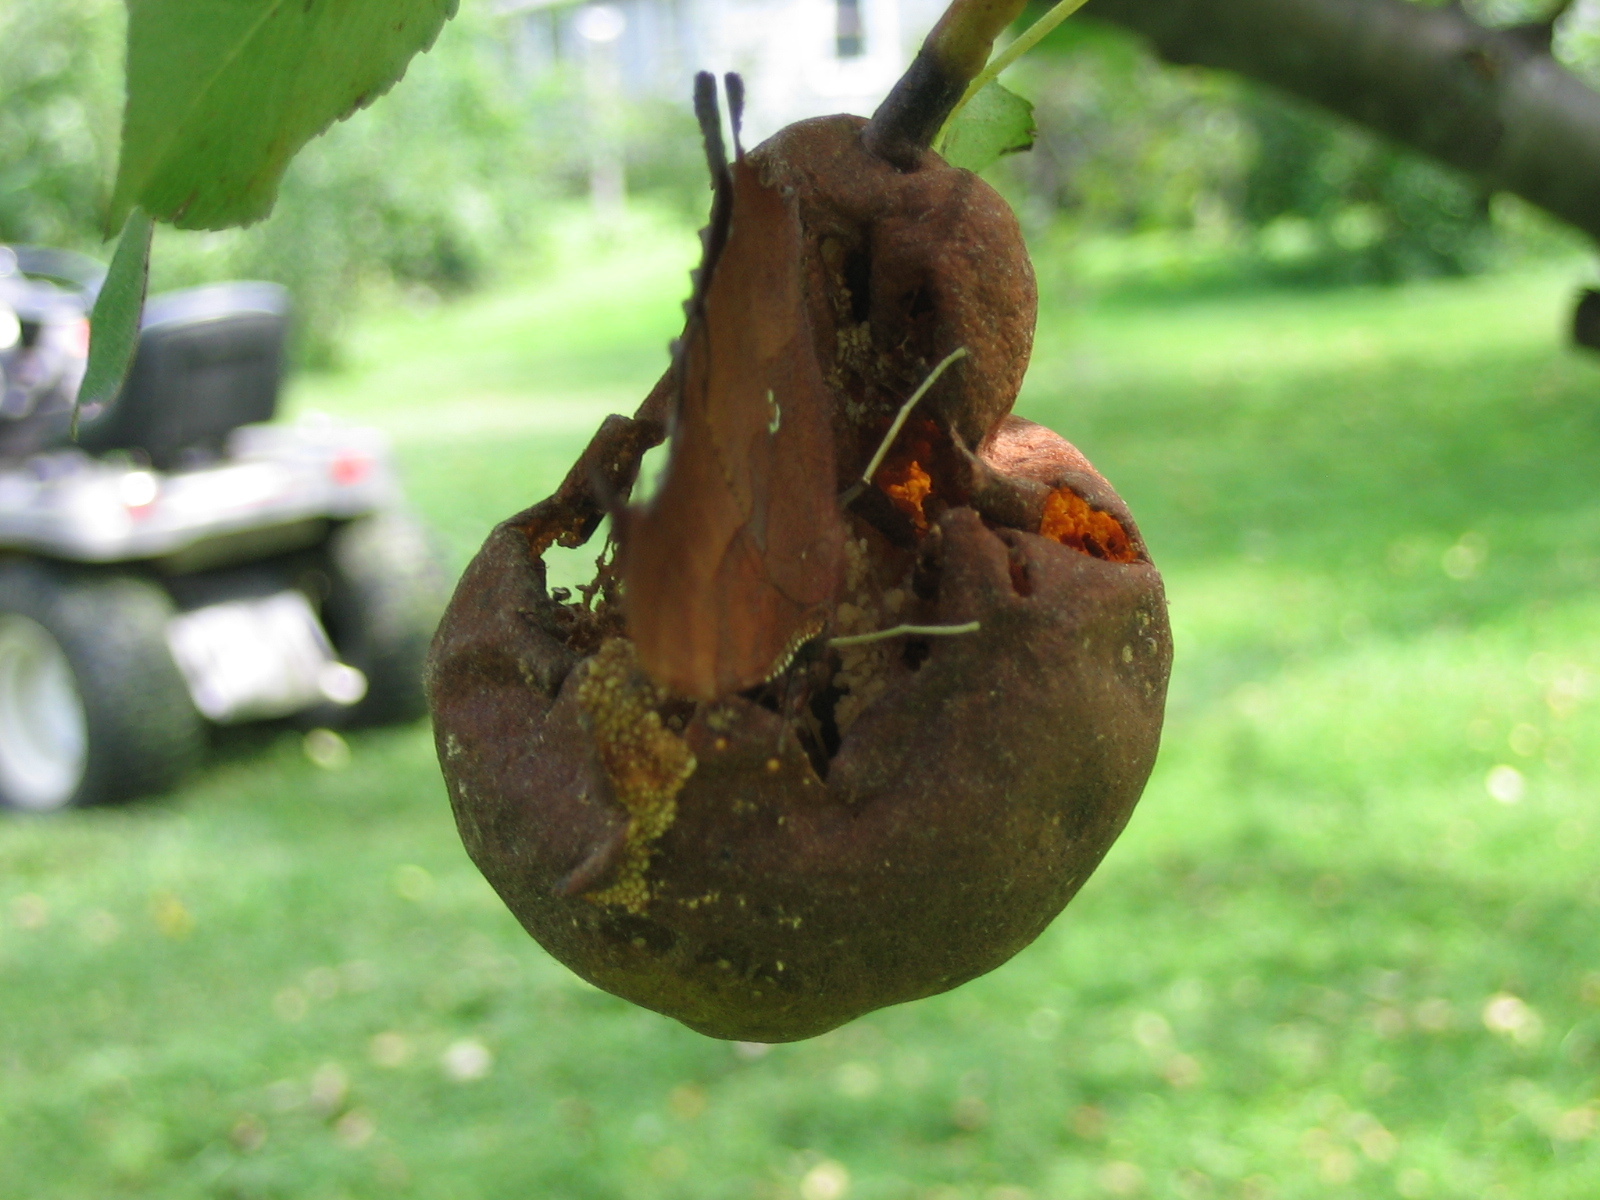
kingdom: Animalia
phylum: Arthropoda
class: Insecta
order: Lepidoptera
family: Nymphalidae
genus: Polygonia
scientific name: Polygonia interrogationis
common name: Question mark
